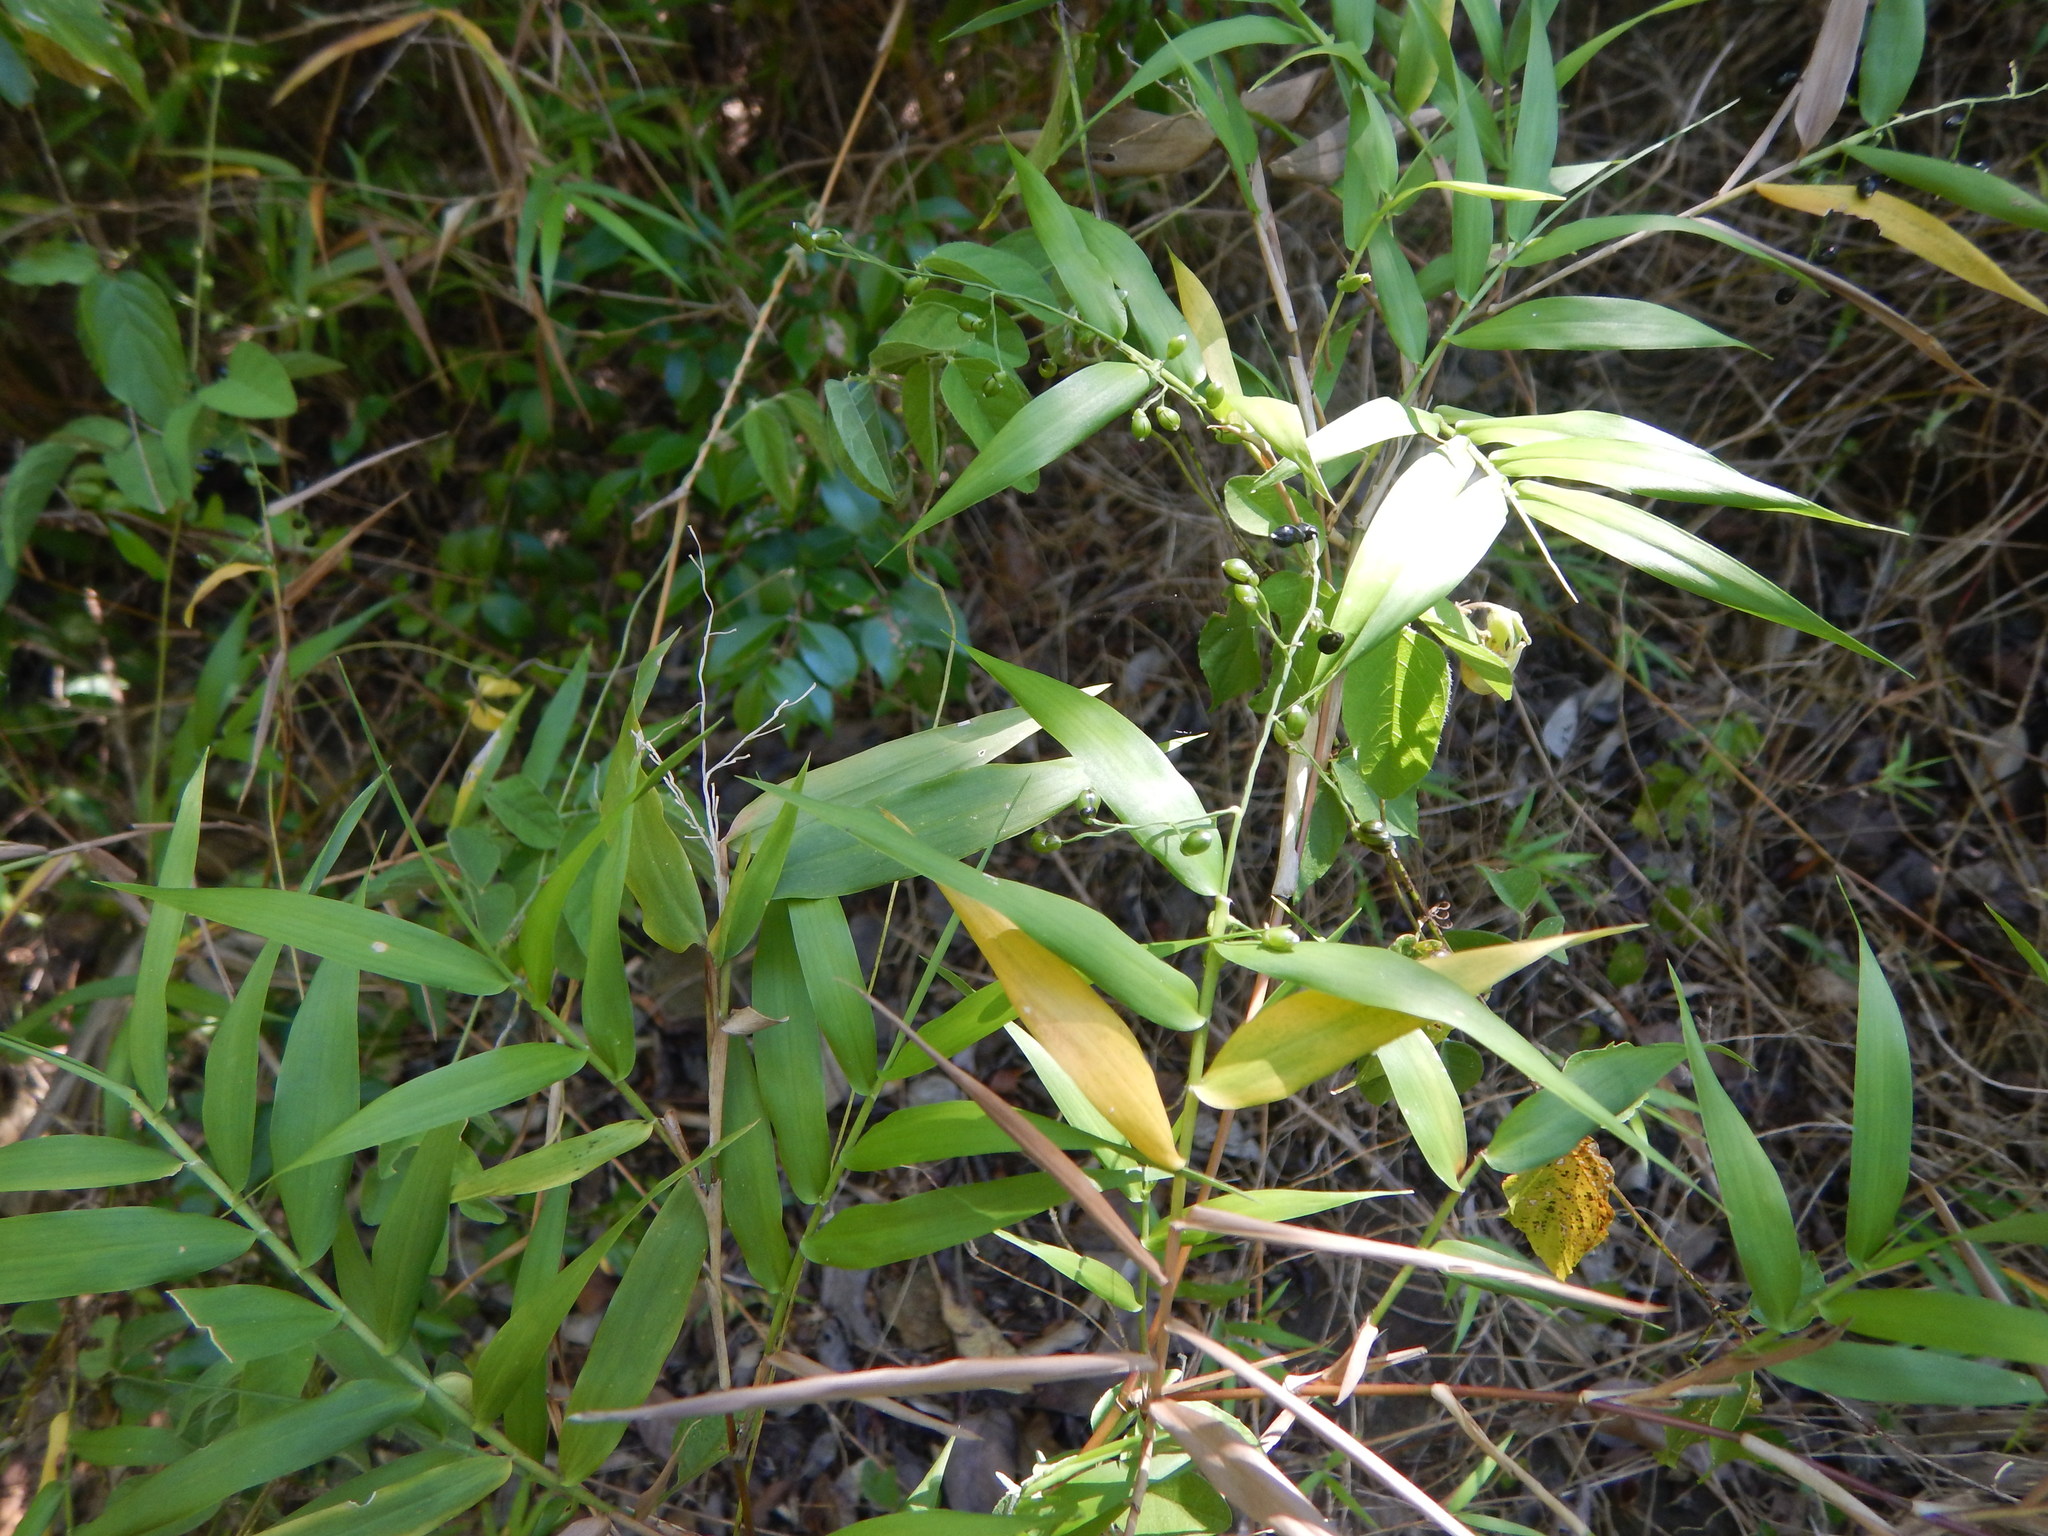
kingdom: Plantae
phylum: Tracheophyta
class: Liliopsida
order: Poales
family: Poaceae
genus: Lasiacis
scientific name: Lasiacis divaricata
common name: Smallcane
